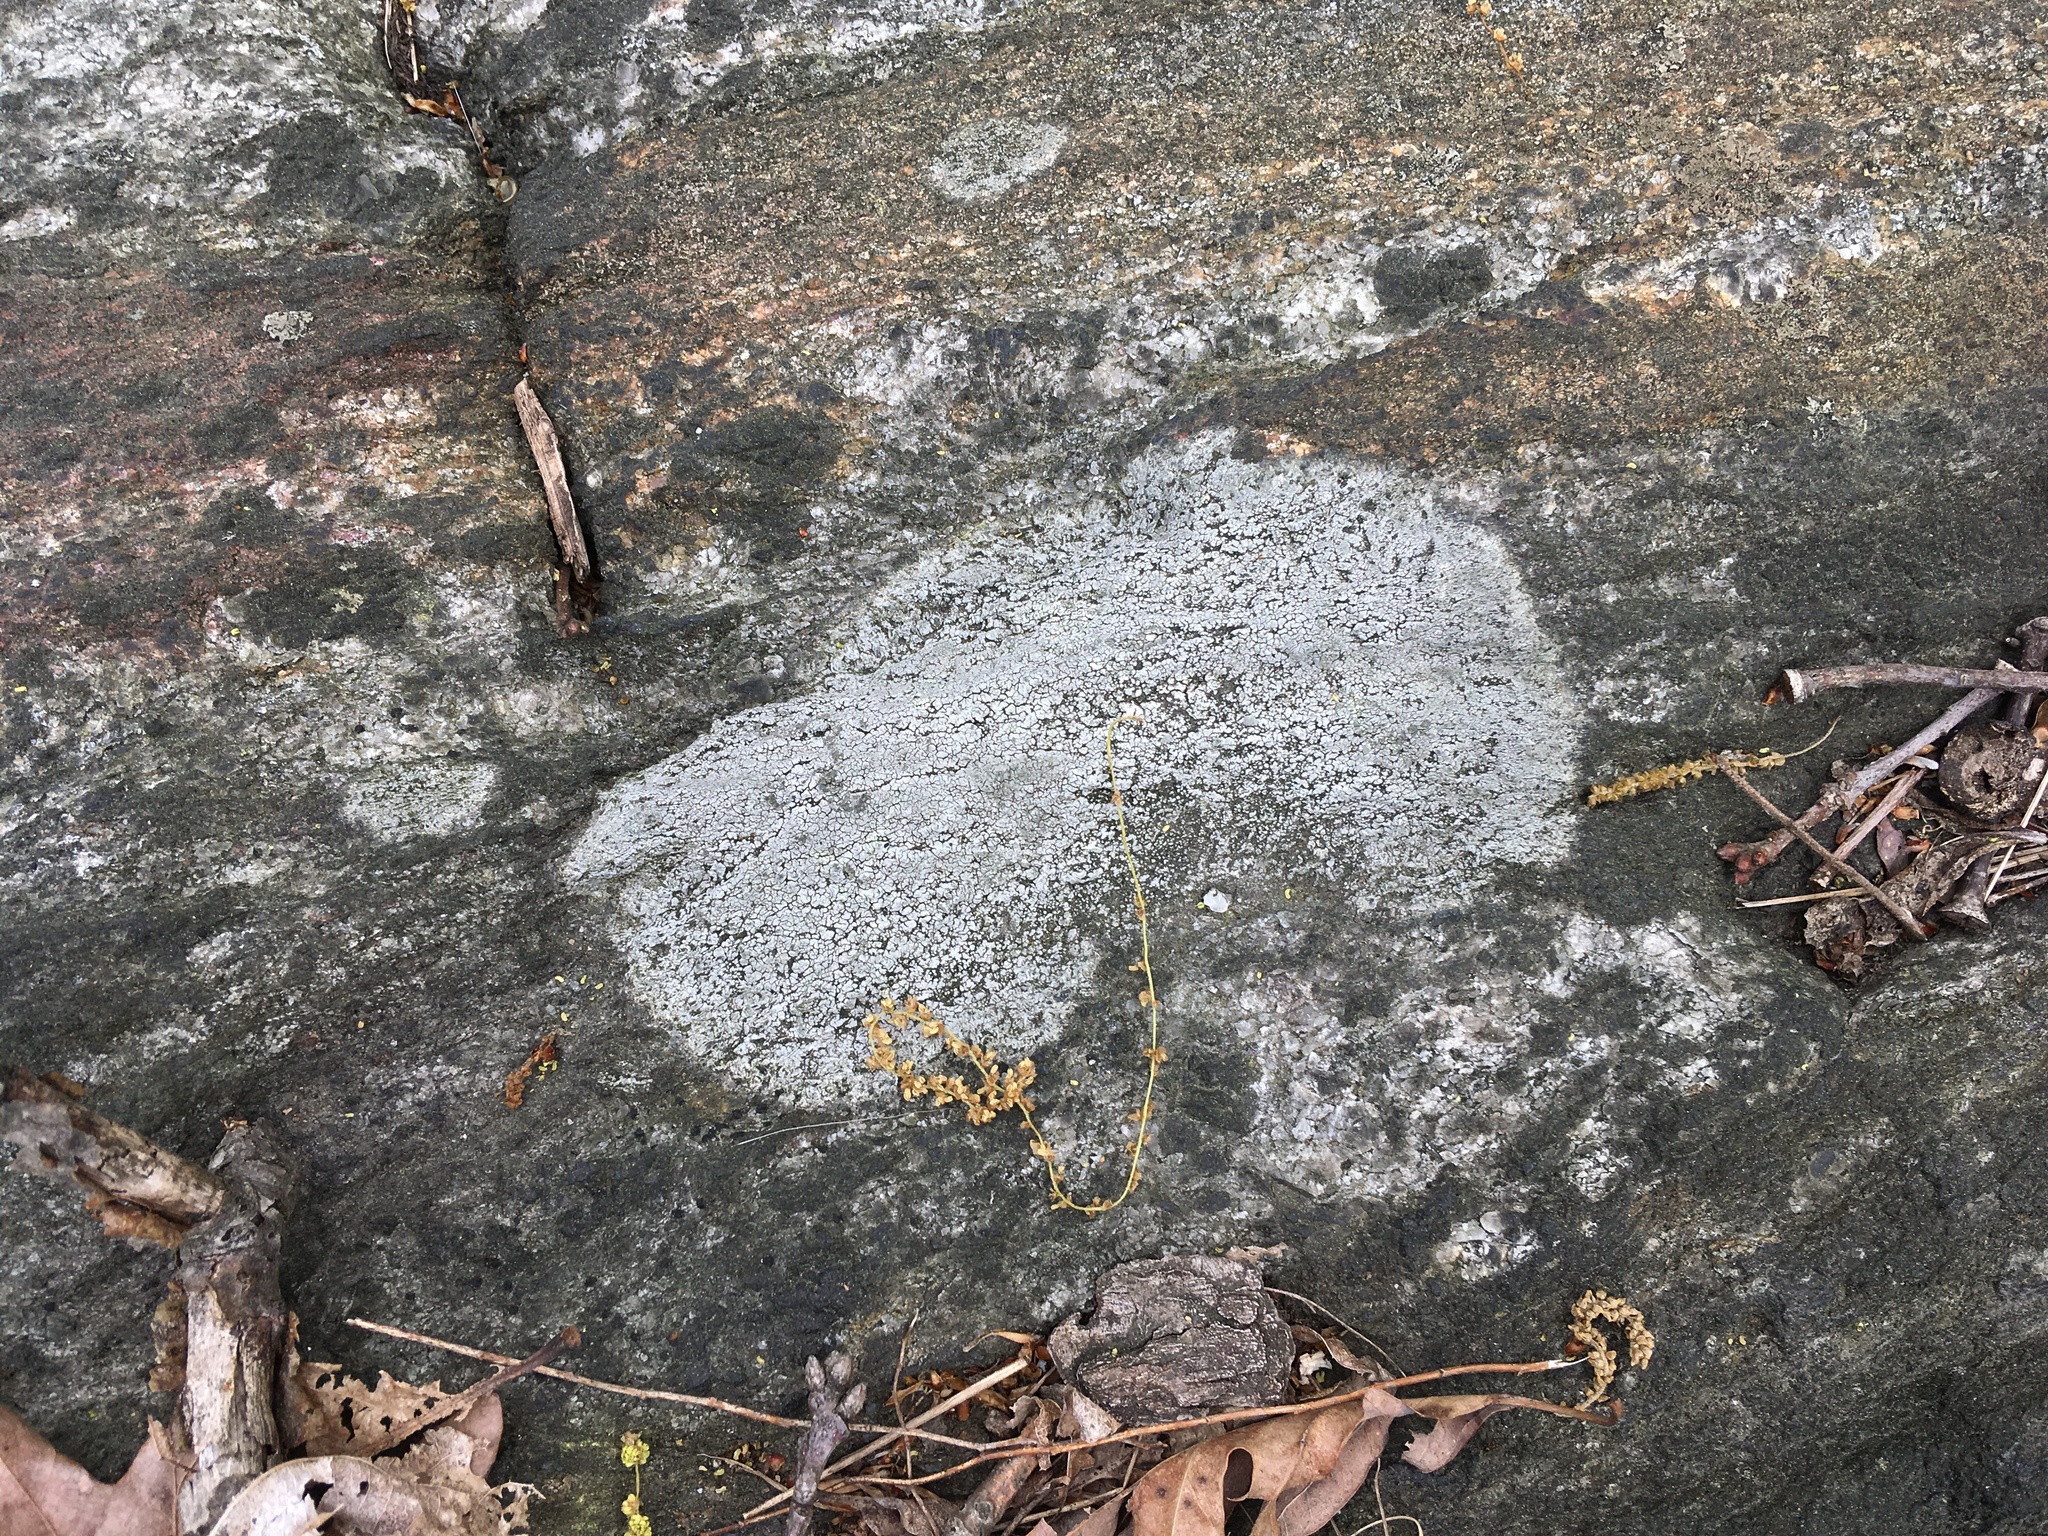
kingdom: Fungi
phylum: Ascomycota
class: Lecanoromycetes
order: Lecideales
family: Lecideaceae
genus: Porpidia
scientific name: Porpidia albocaerulescens
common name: Smokey-eyed boulder lichen
